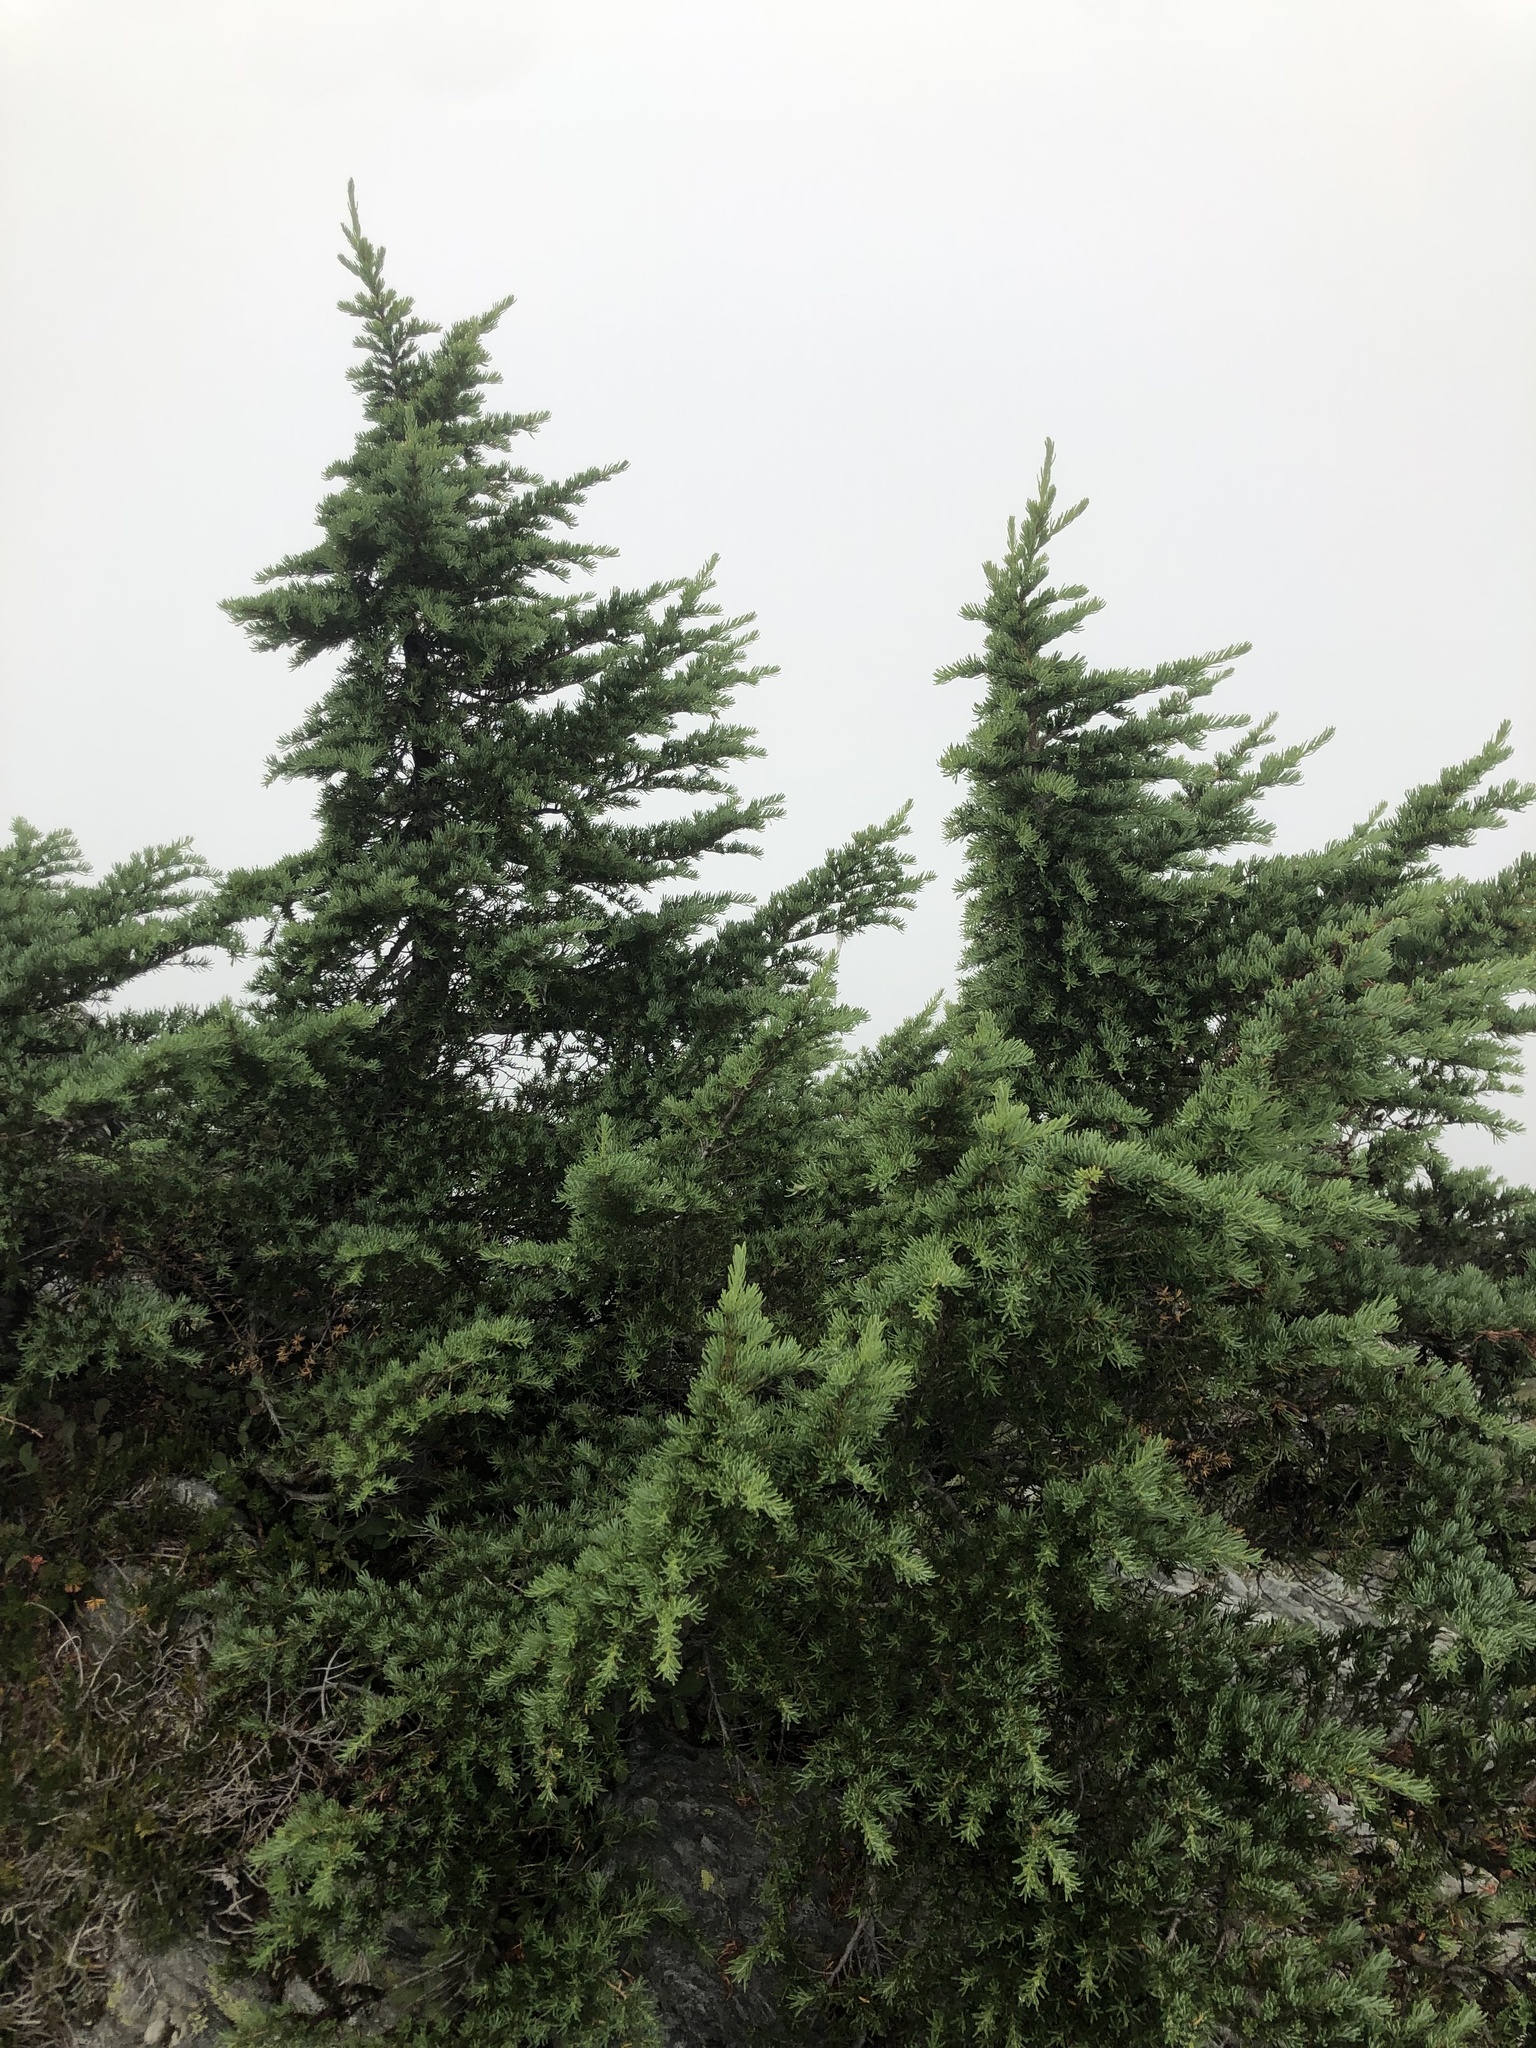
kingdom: Plantae
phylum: Tracheophyta
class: Pinopsida
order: Pinales
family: Pinaceae
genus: Tsuga
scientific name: Tsuga mertensiana
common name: Mountain hemlock
